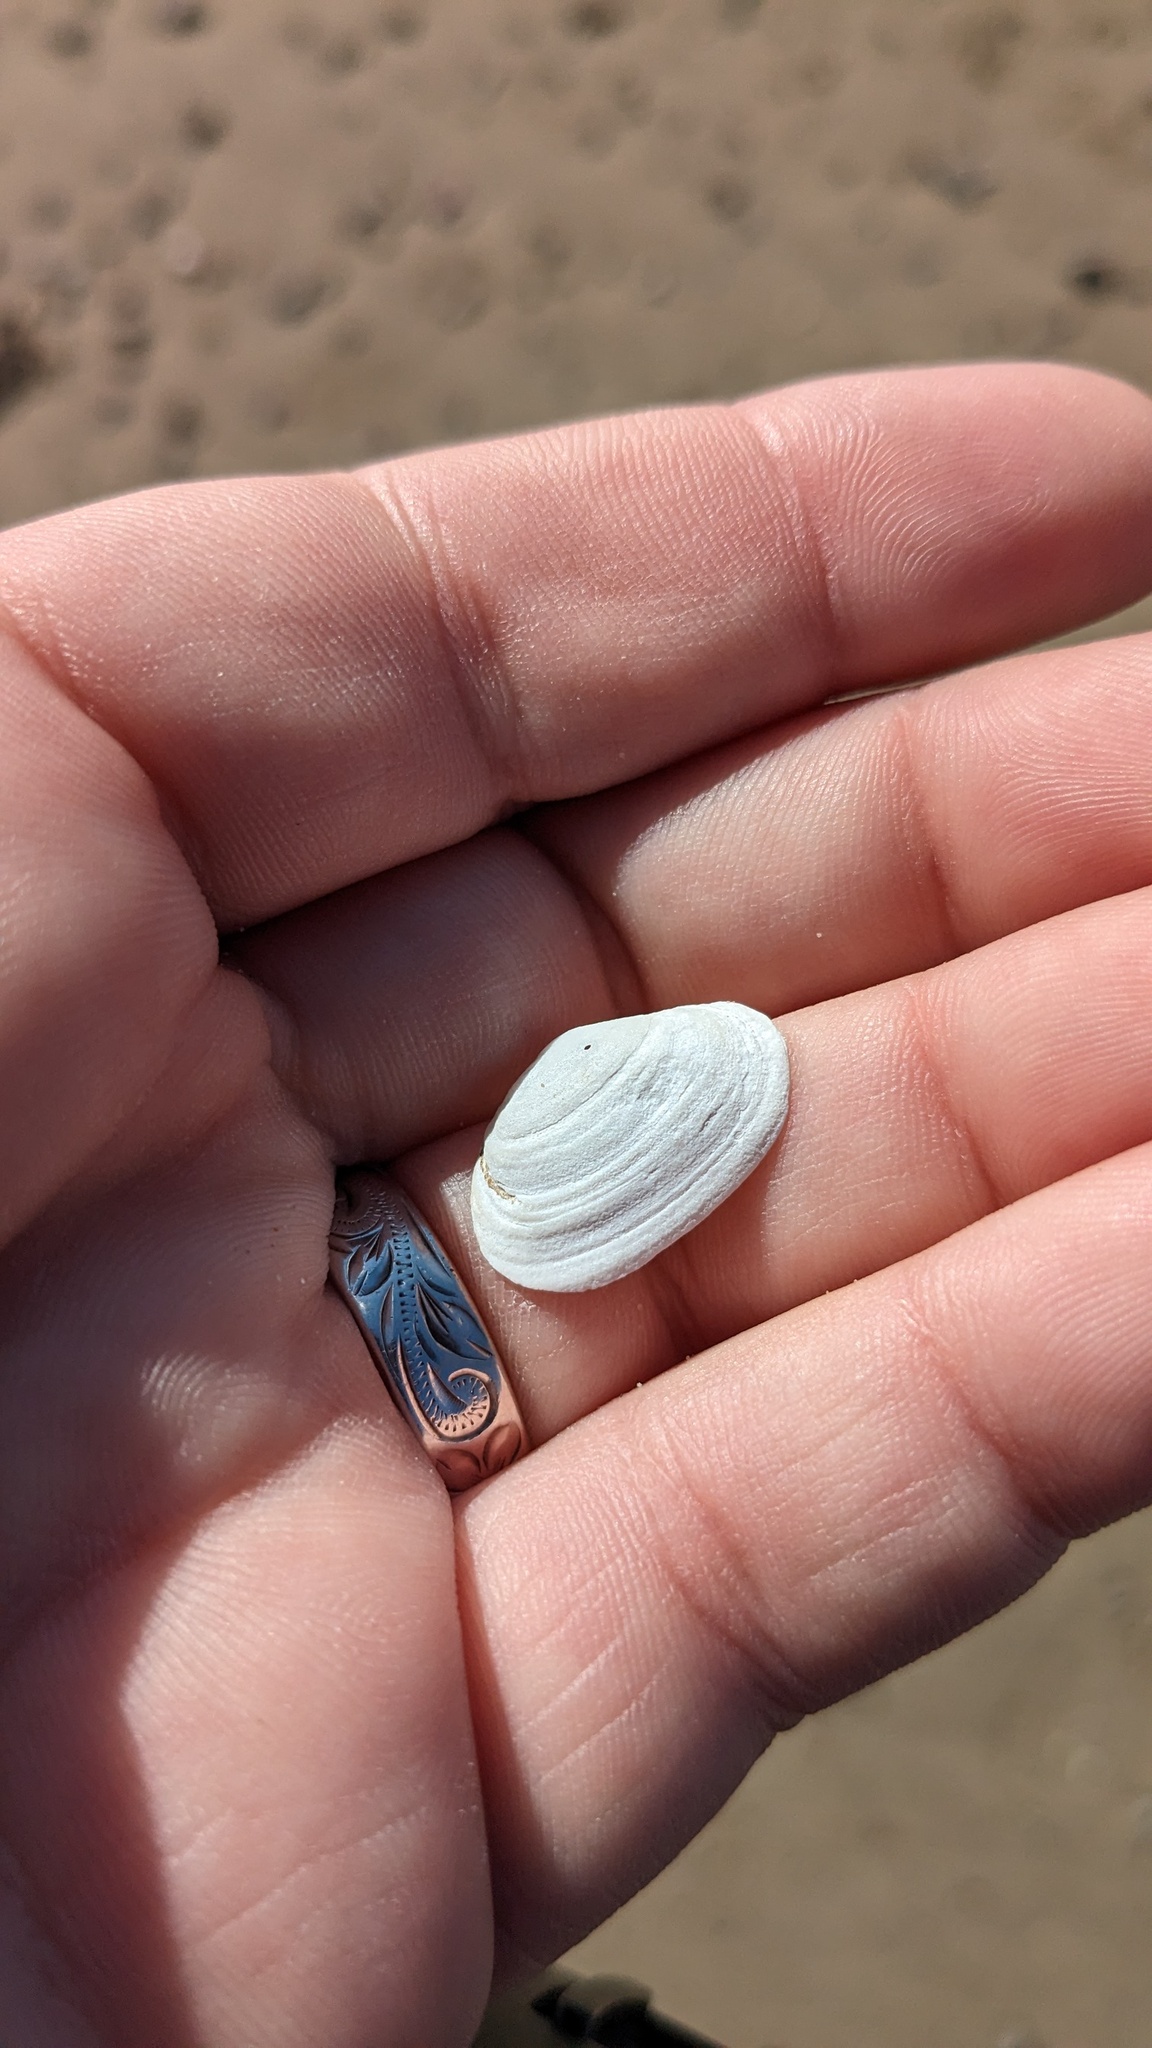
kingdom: Animalia
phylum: Mollusca
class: Bivalvia
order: Myida
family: Myidae
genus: Mya
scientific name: Mya arenaria
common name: Soft-shelled clam
